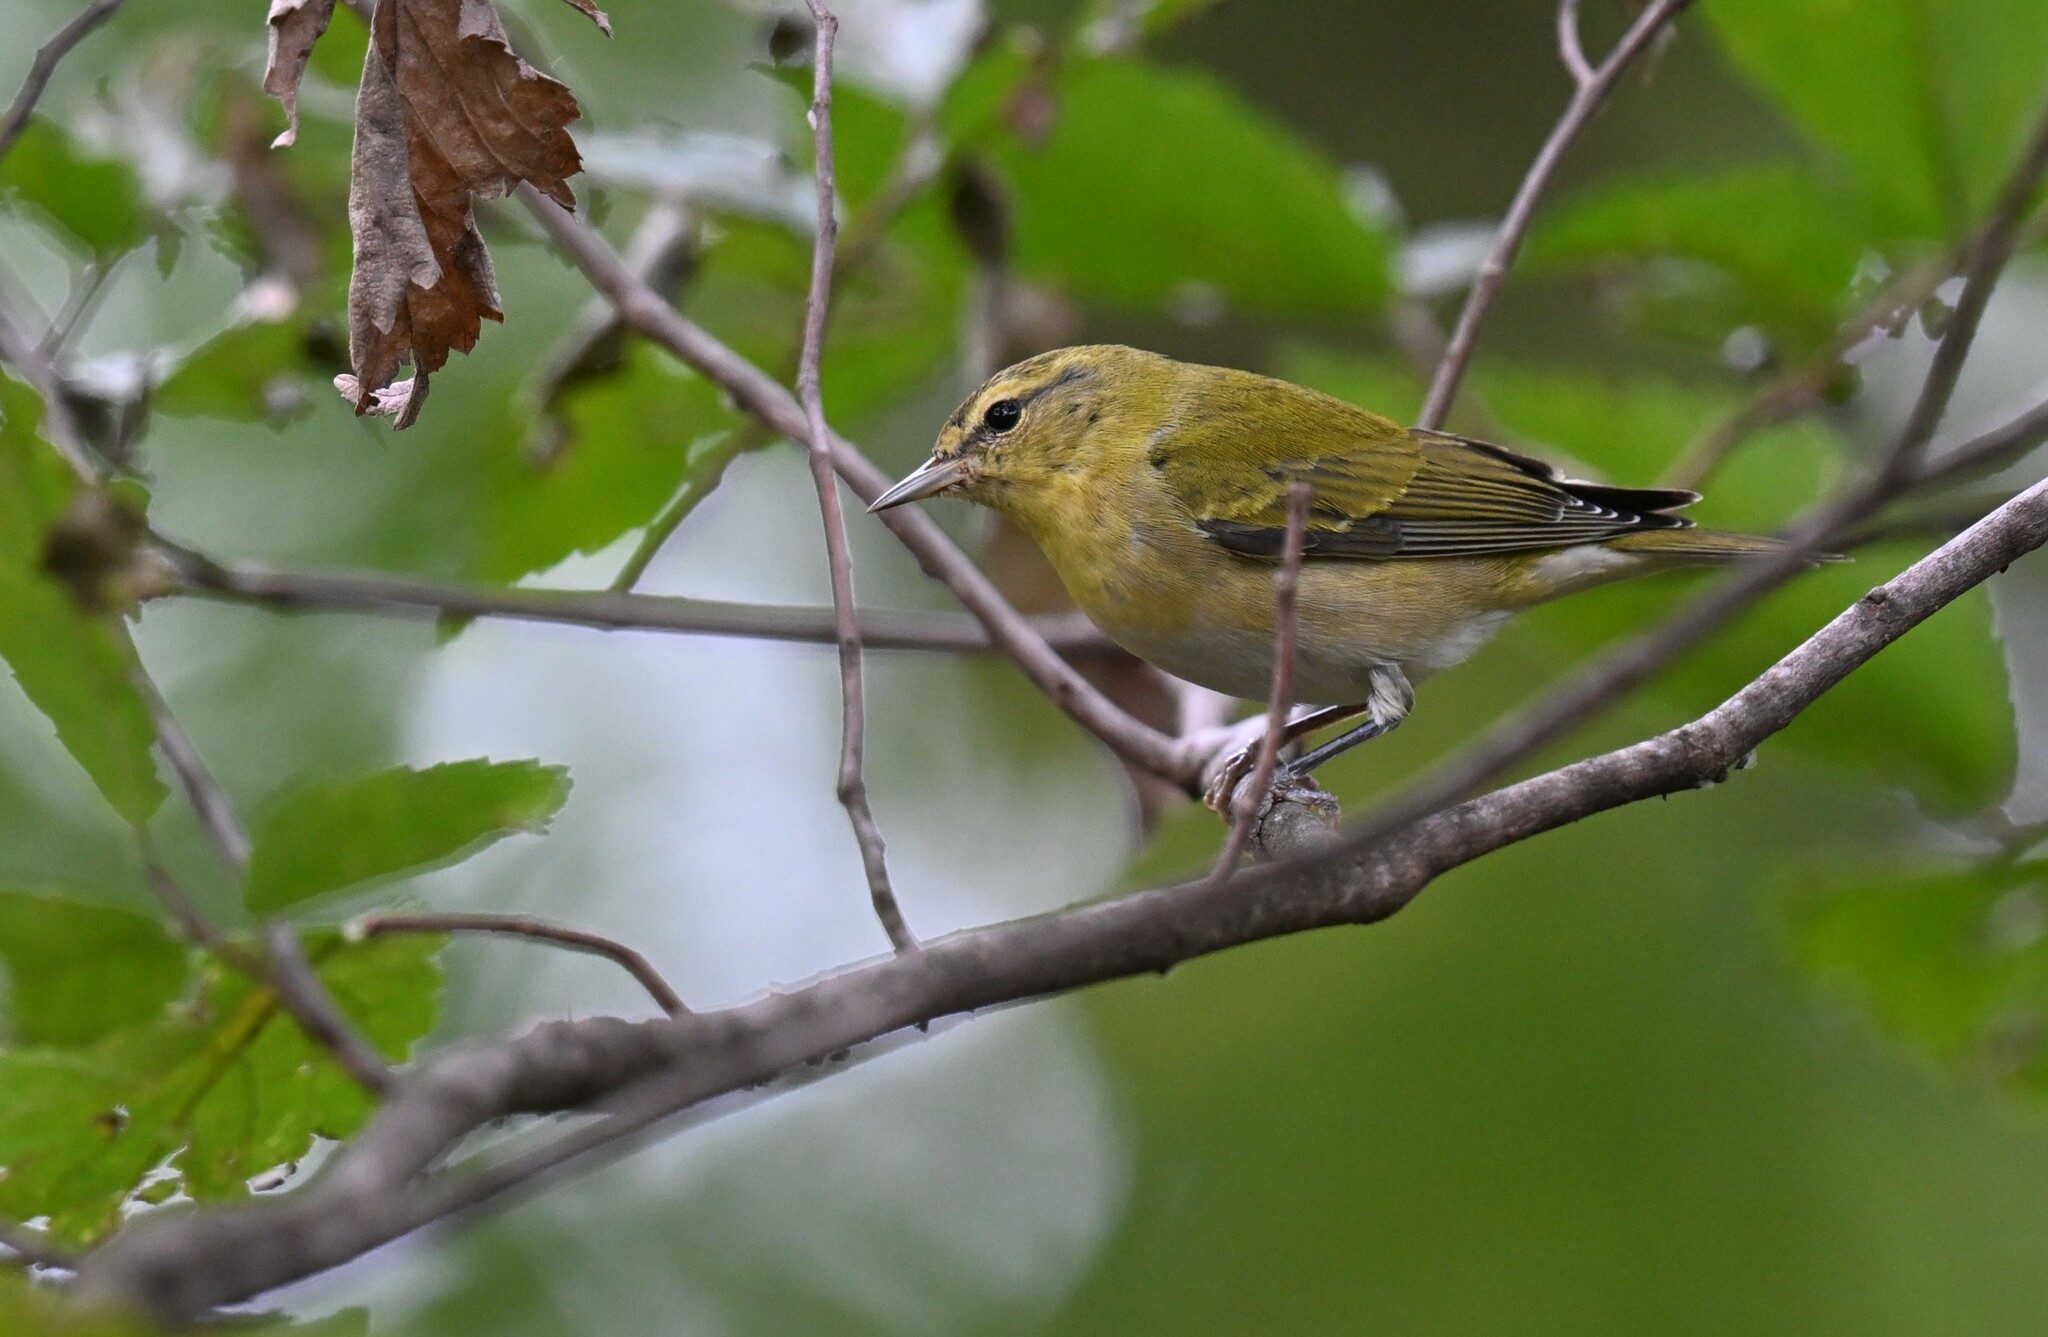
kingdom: Animalia
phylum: Chordata
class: Aves
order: Passeriformes
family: Parulidae
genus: Leiothlypis
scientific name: Leiothlypis peregrina
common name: Tennessee warbler
